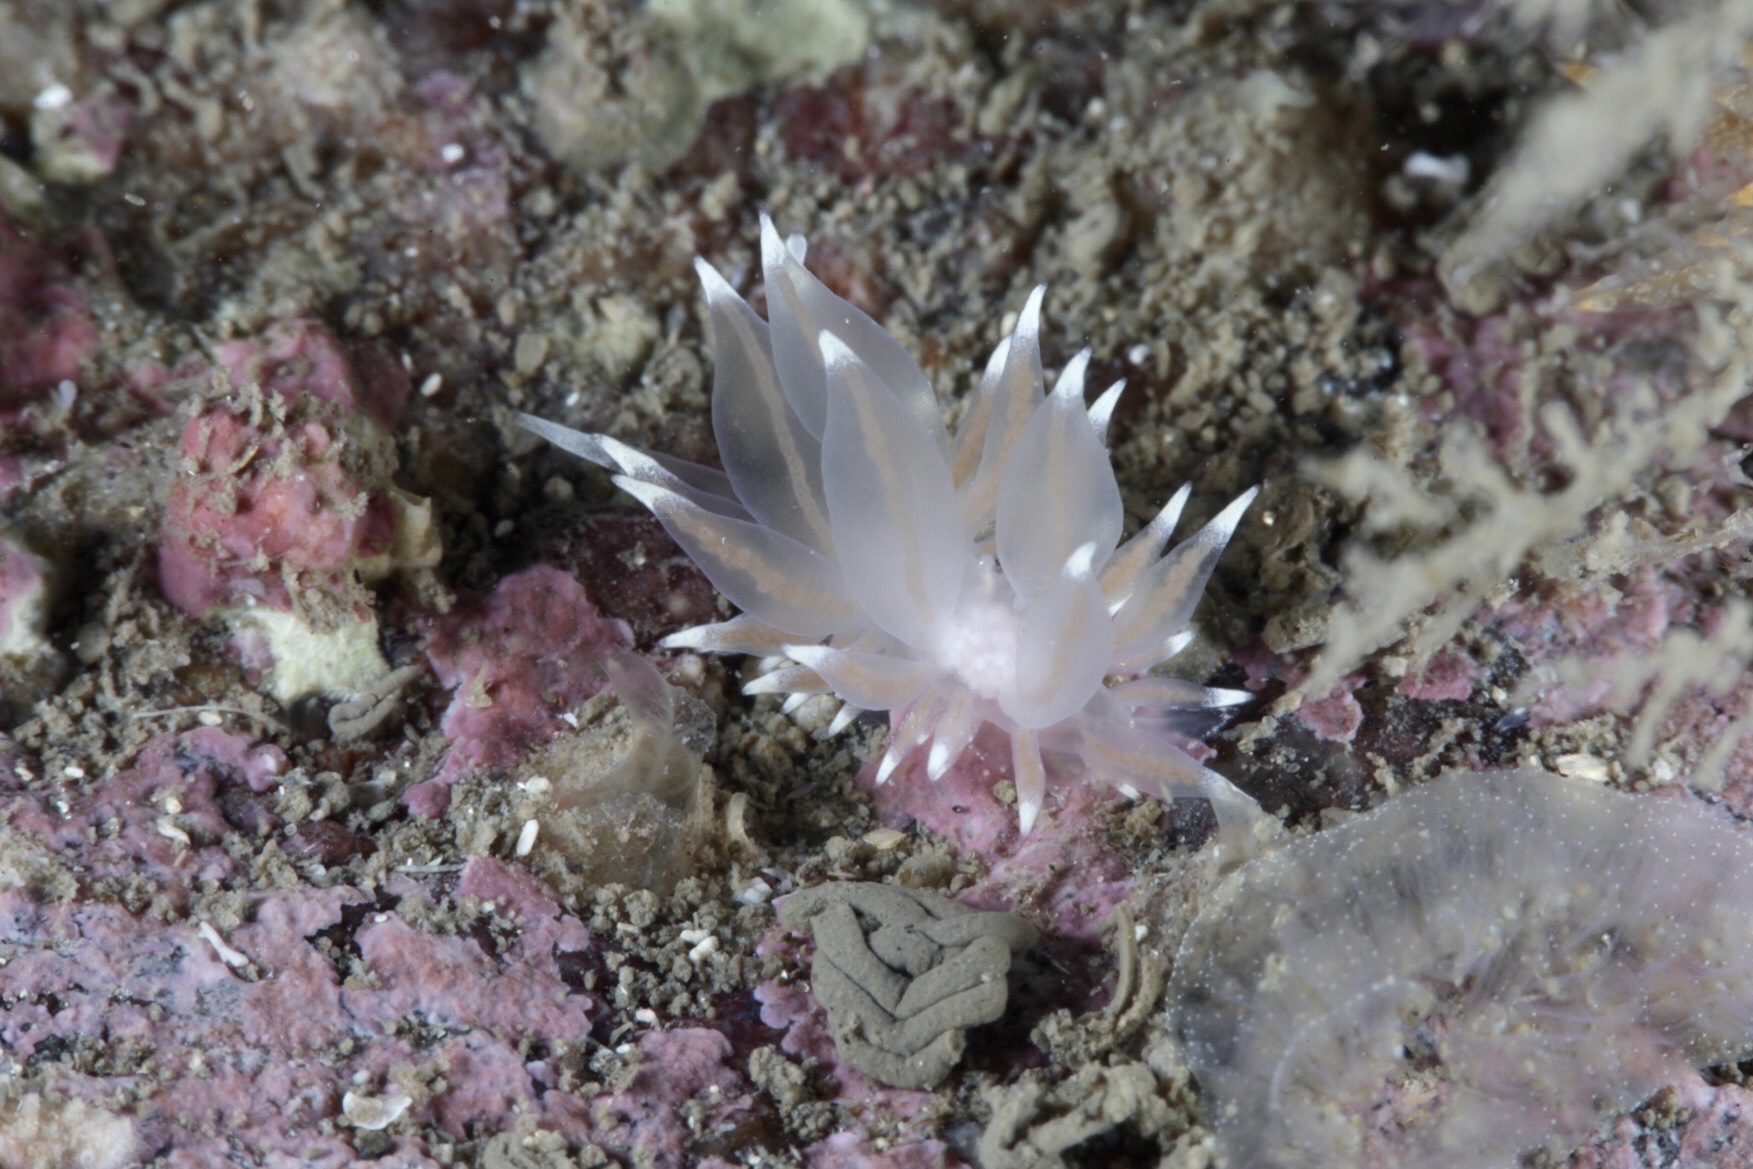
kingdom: Animalia
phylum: Mollusca
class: Gastropoda
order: Nudibranchia
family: Eubranchidae
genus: Amphorina
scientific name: Amphorina linensis
